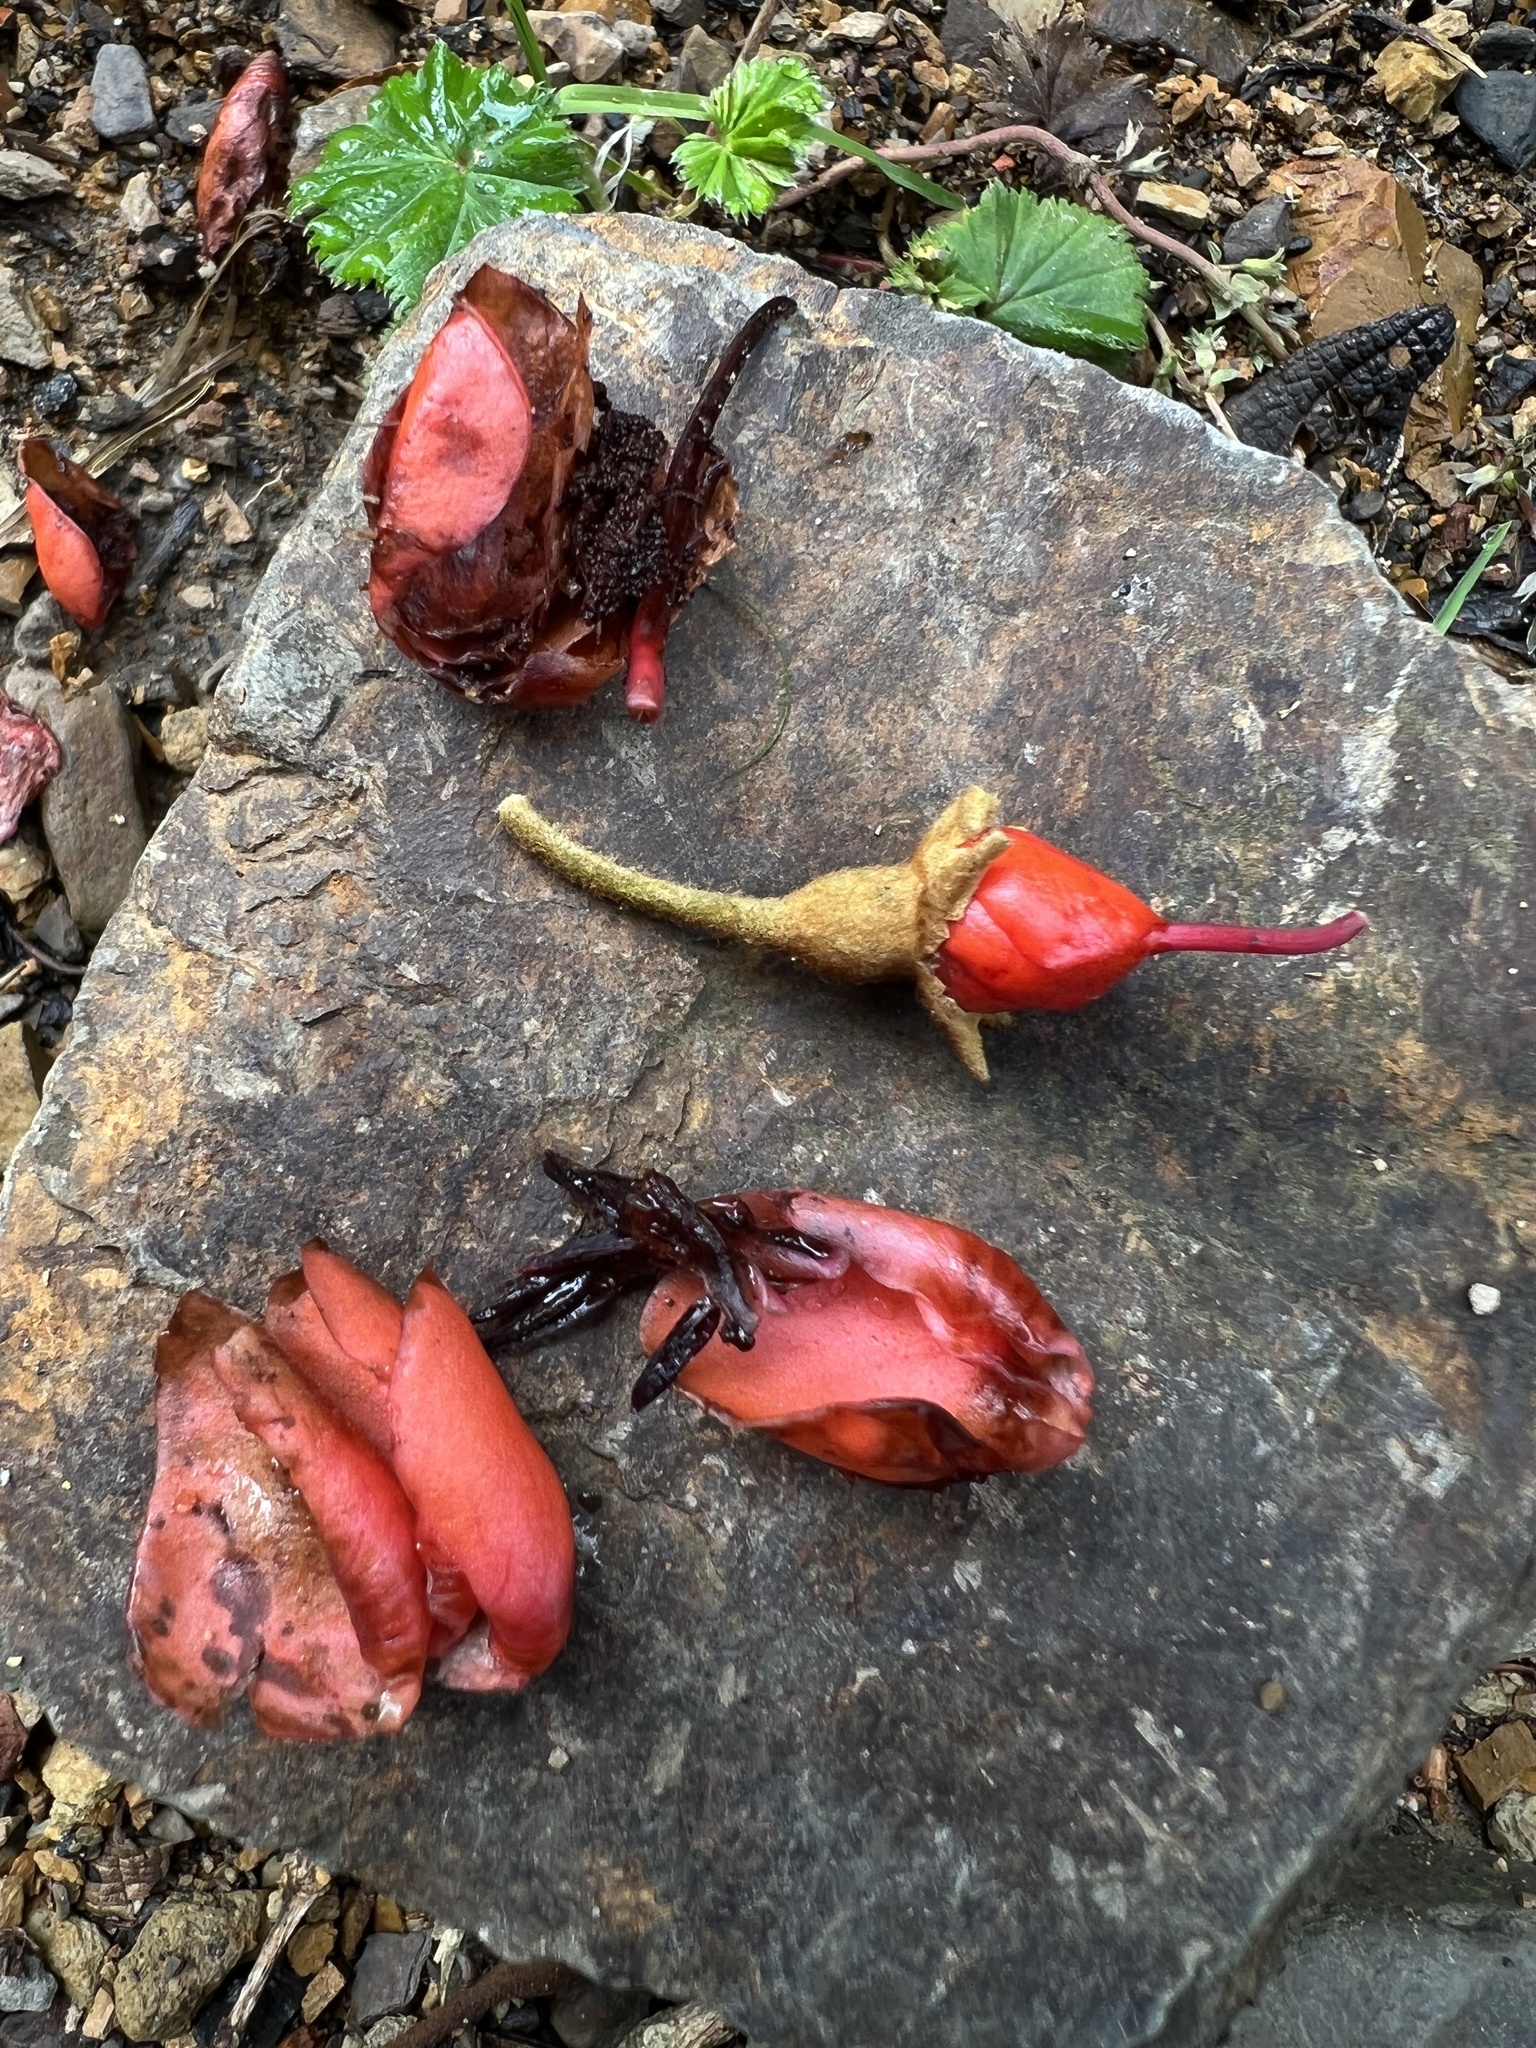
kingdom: Plantae
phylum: Tracheophyta
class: Magnoliopsida
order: Myrtales
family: Melastomataceae
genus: Meriania
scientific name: Meriania colombiana
